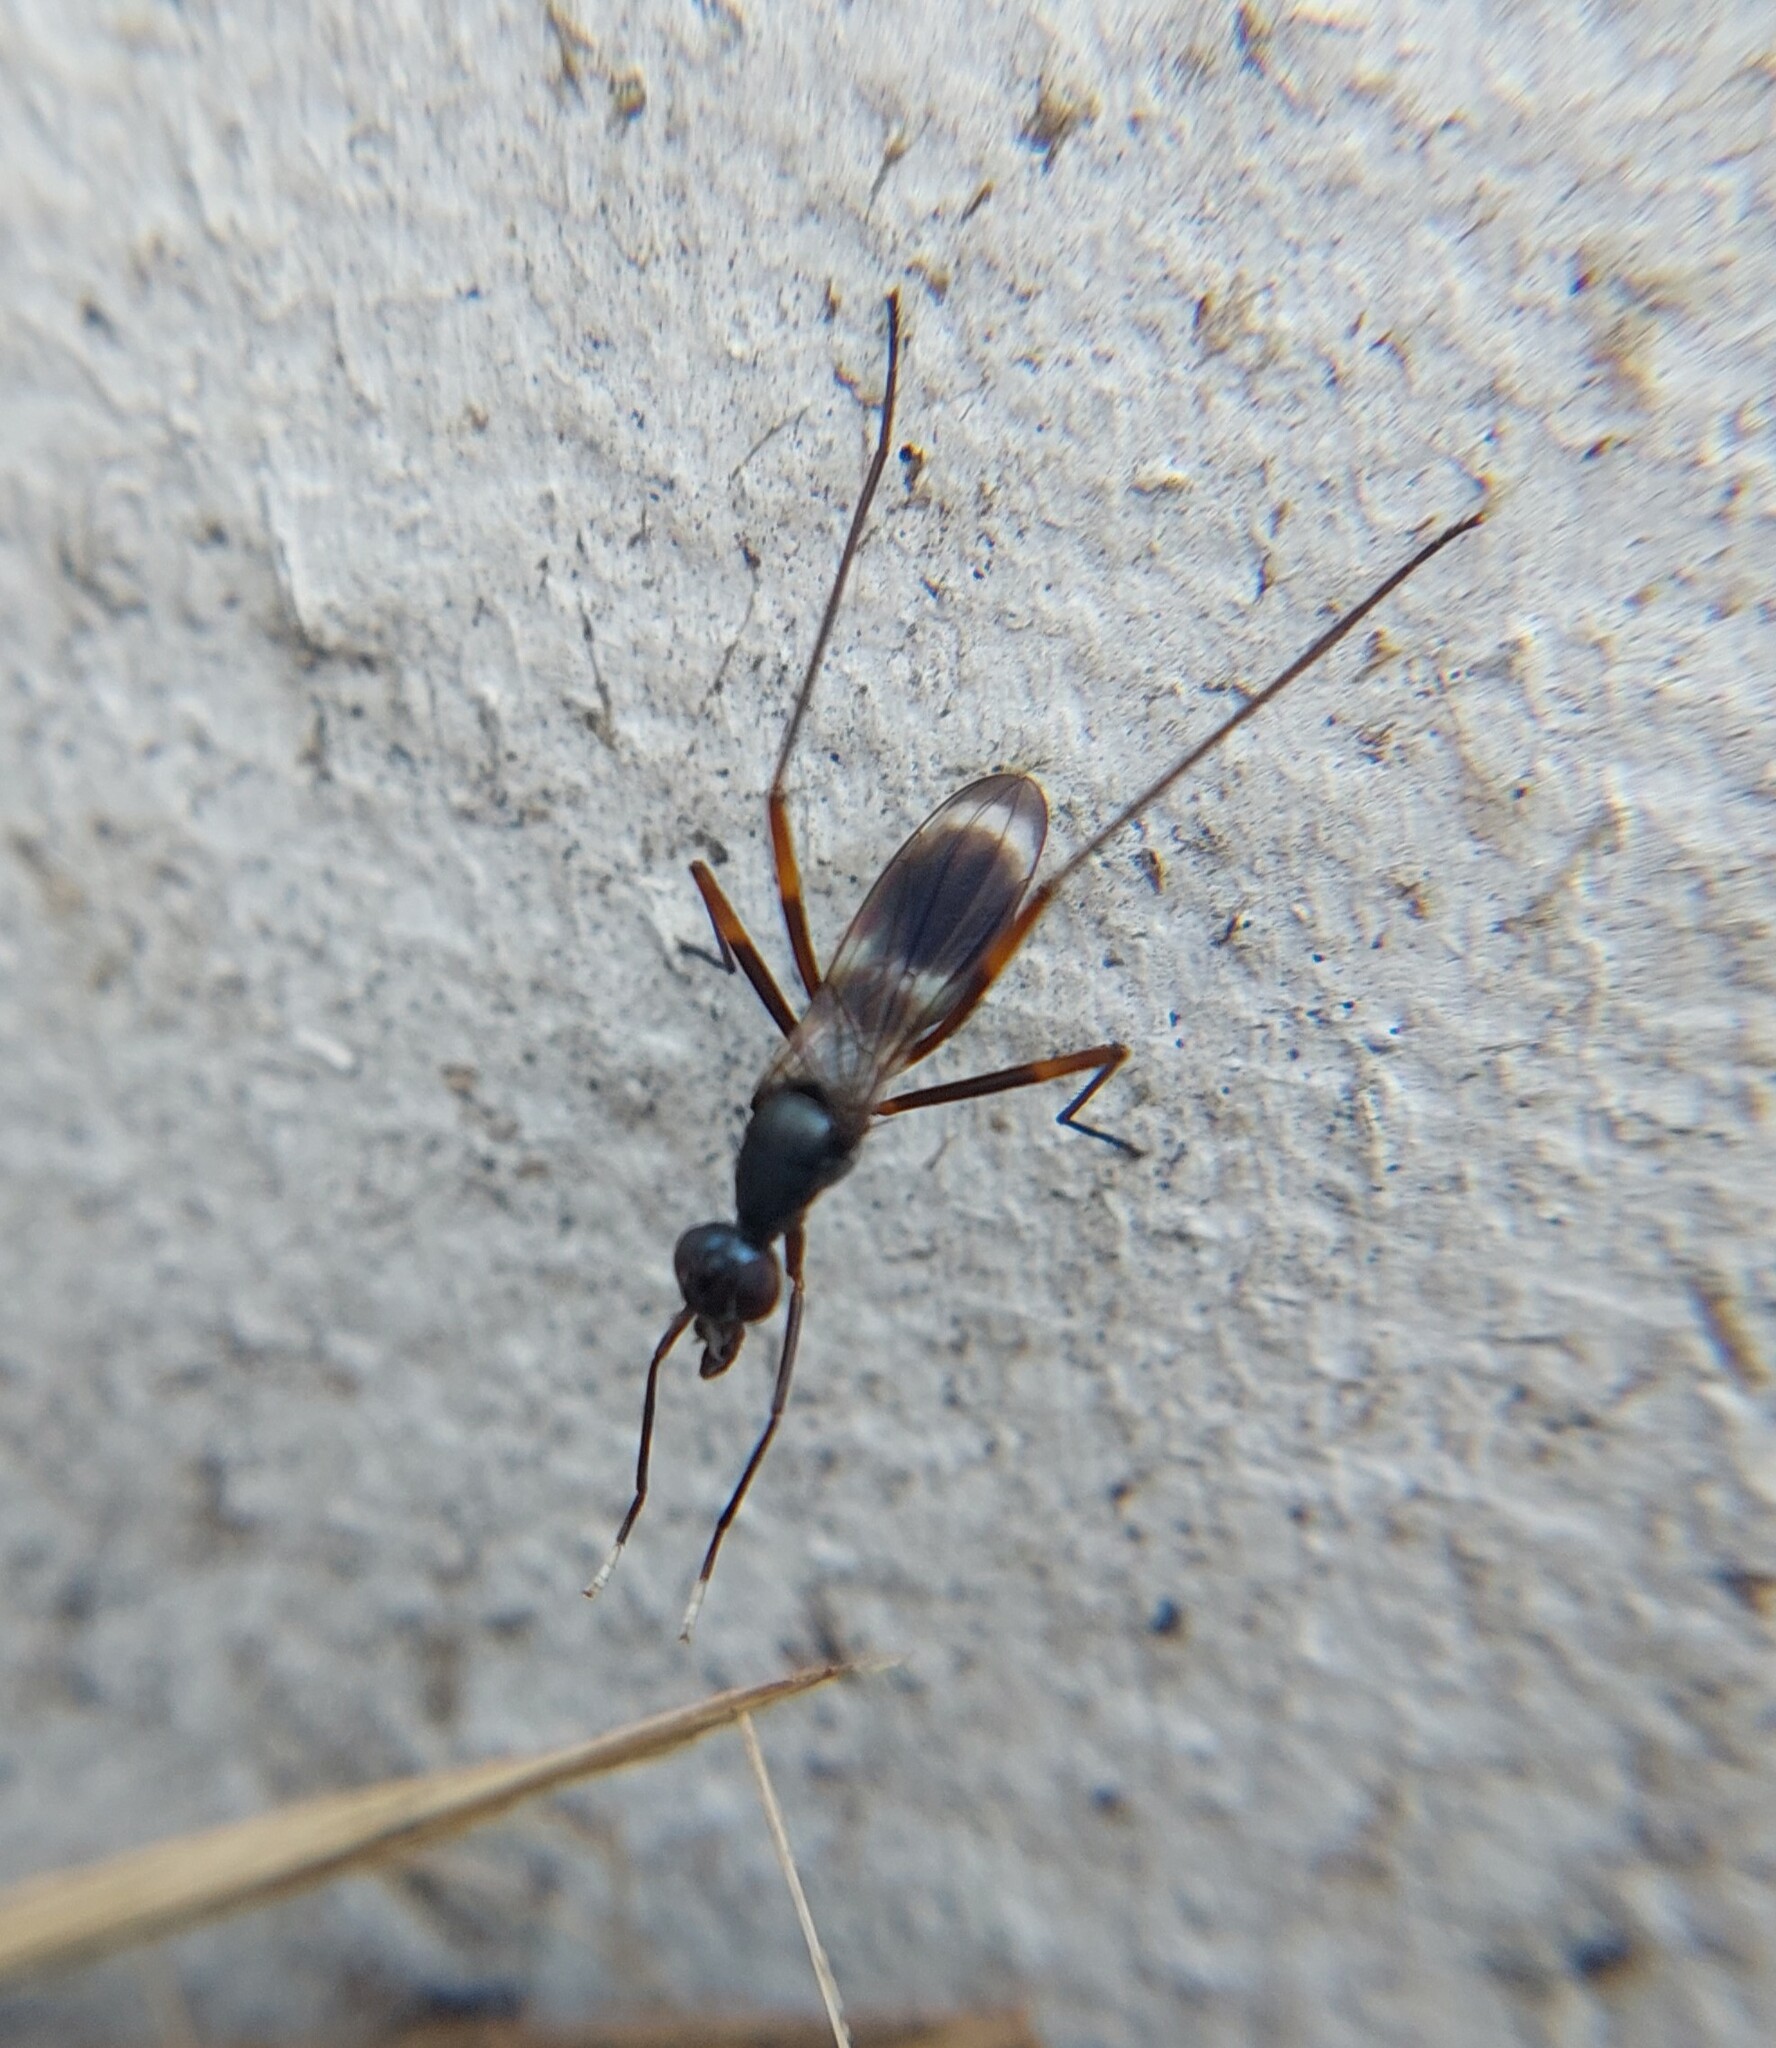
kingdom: Animalia
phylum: Arthropoda
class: Insecta
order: Diptera
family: Micropezidae
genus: Taeniaptera
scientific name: Taeniaptera trivittata
